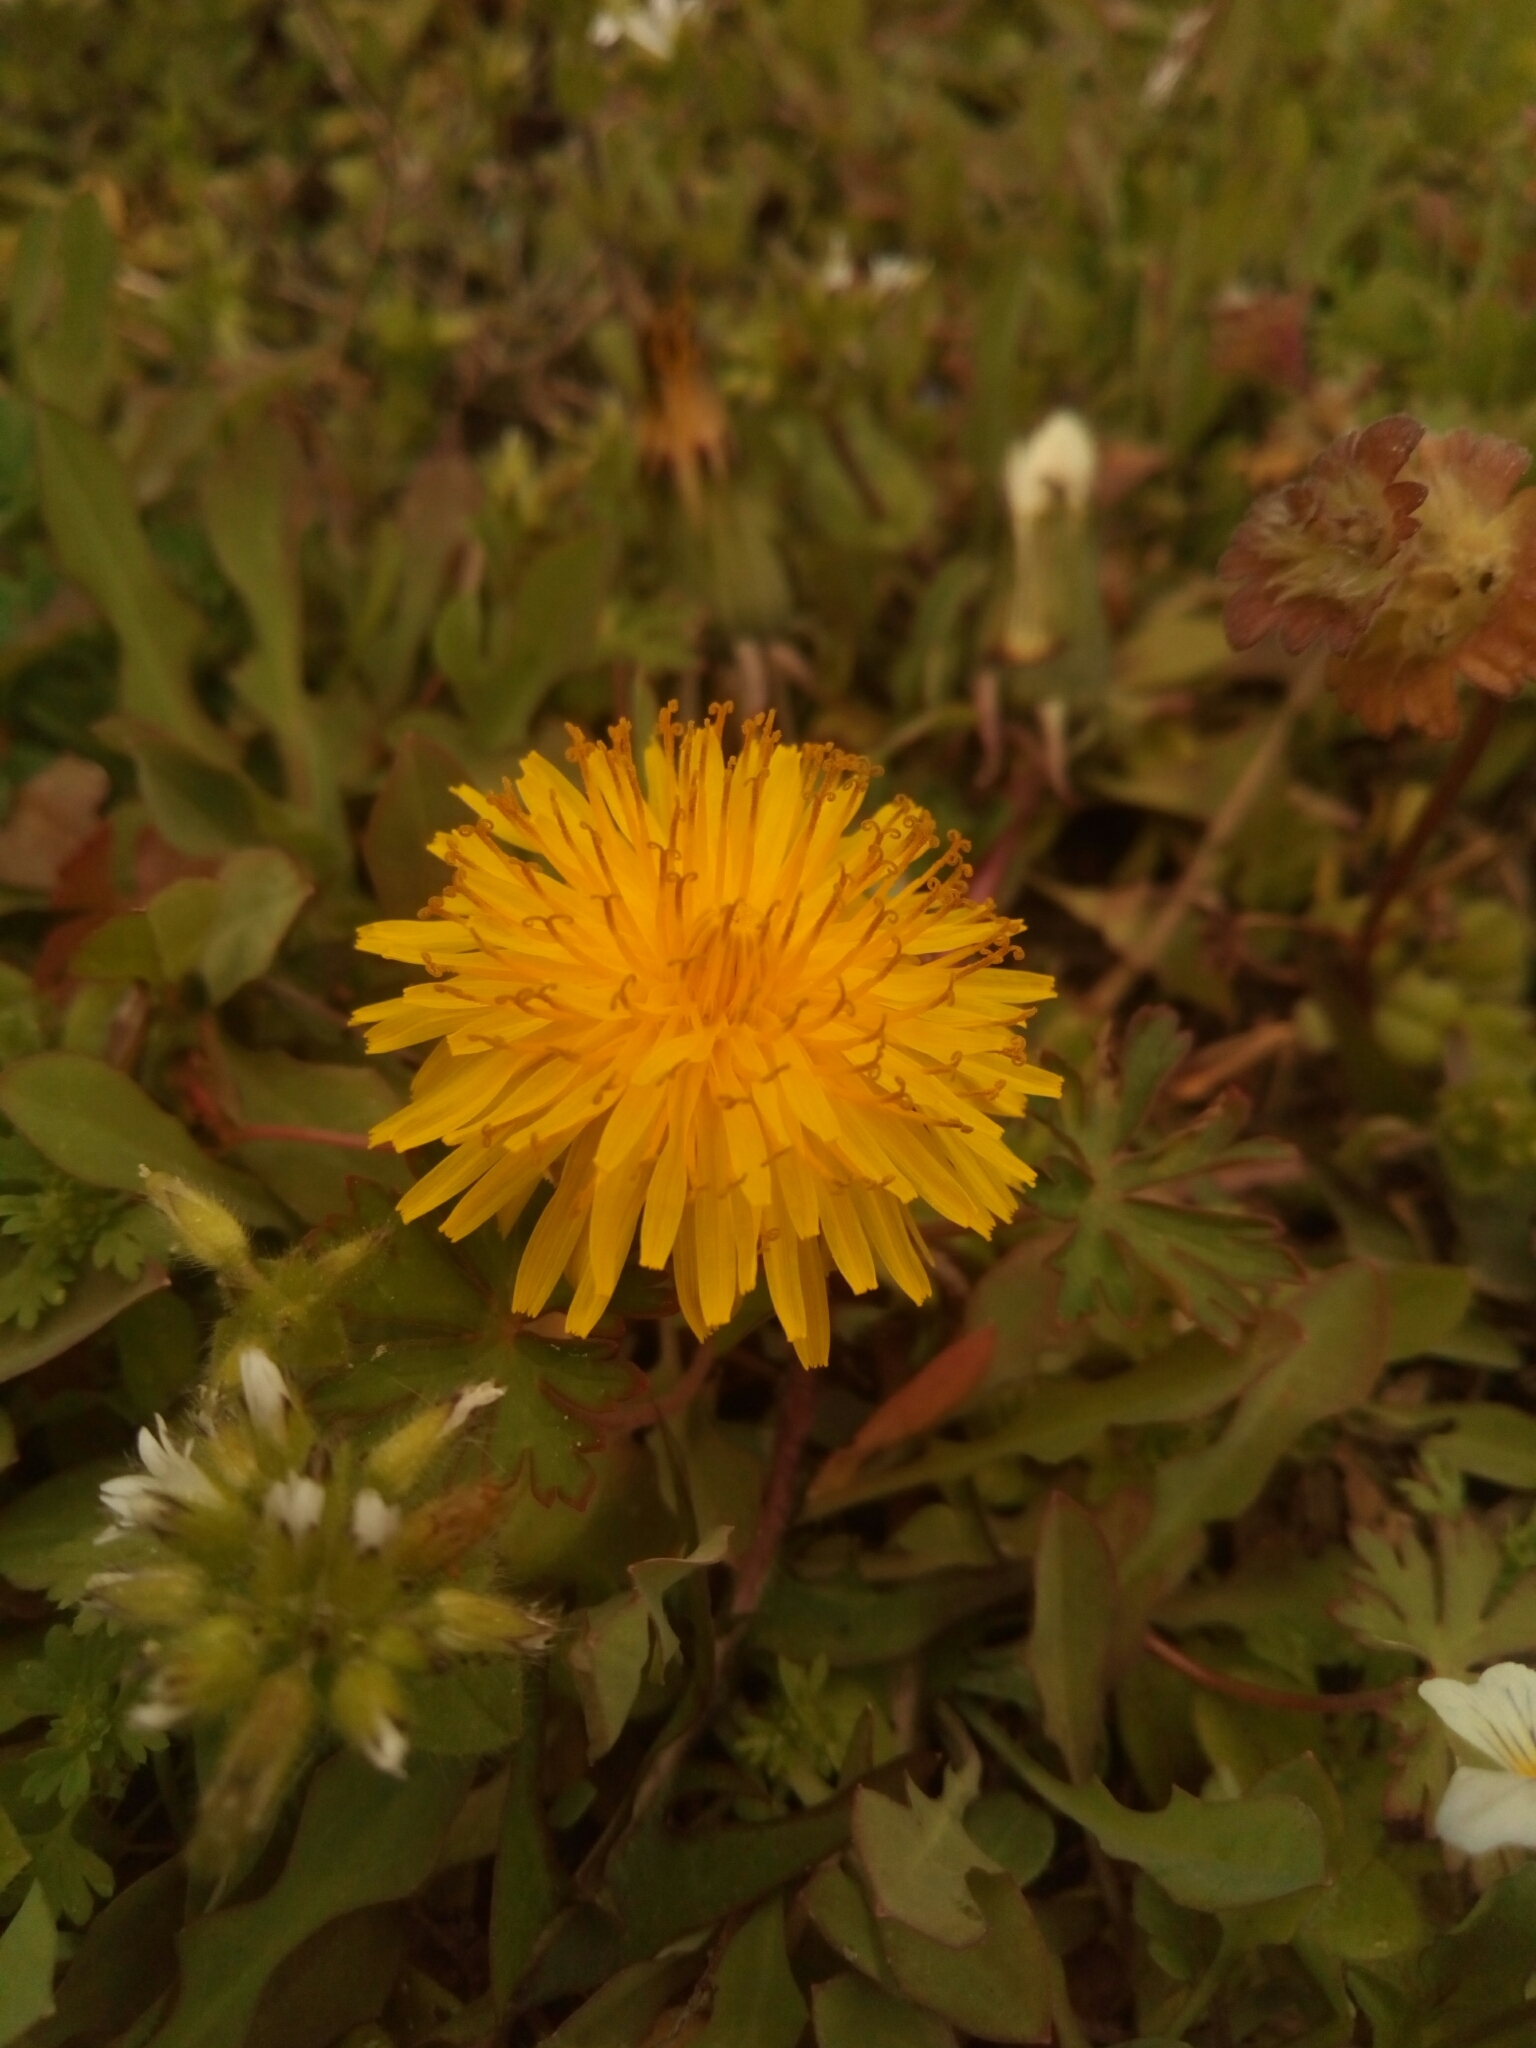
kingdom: Plantae
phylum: Tracheophyta
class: Magnoliopsida
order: Asterales
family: Asteraceae
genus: Taraxacum
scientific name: Taraxacum officinale
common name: Common dandelion
